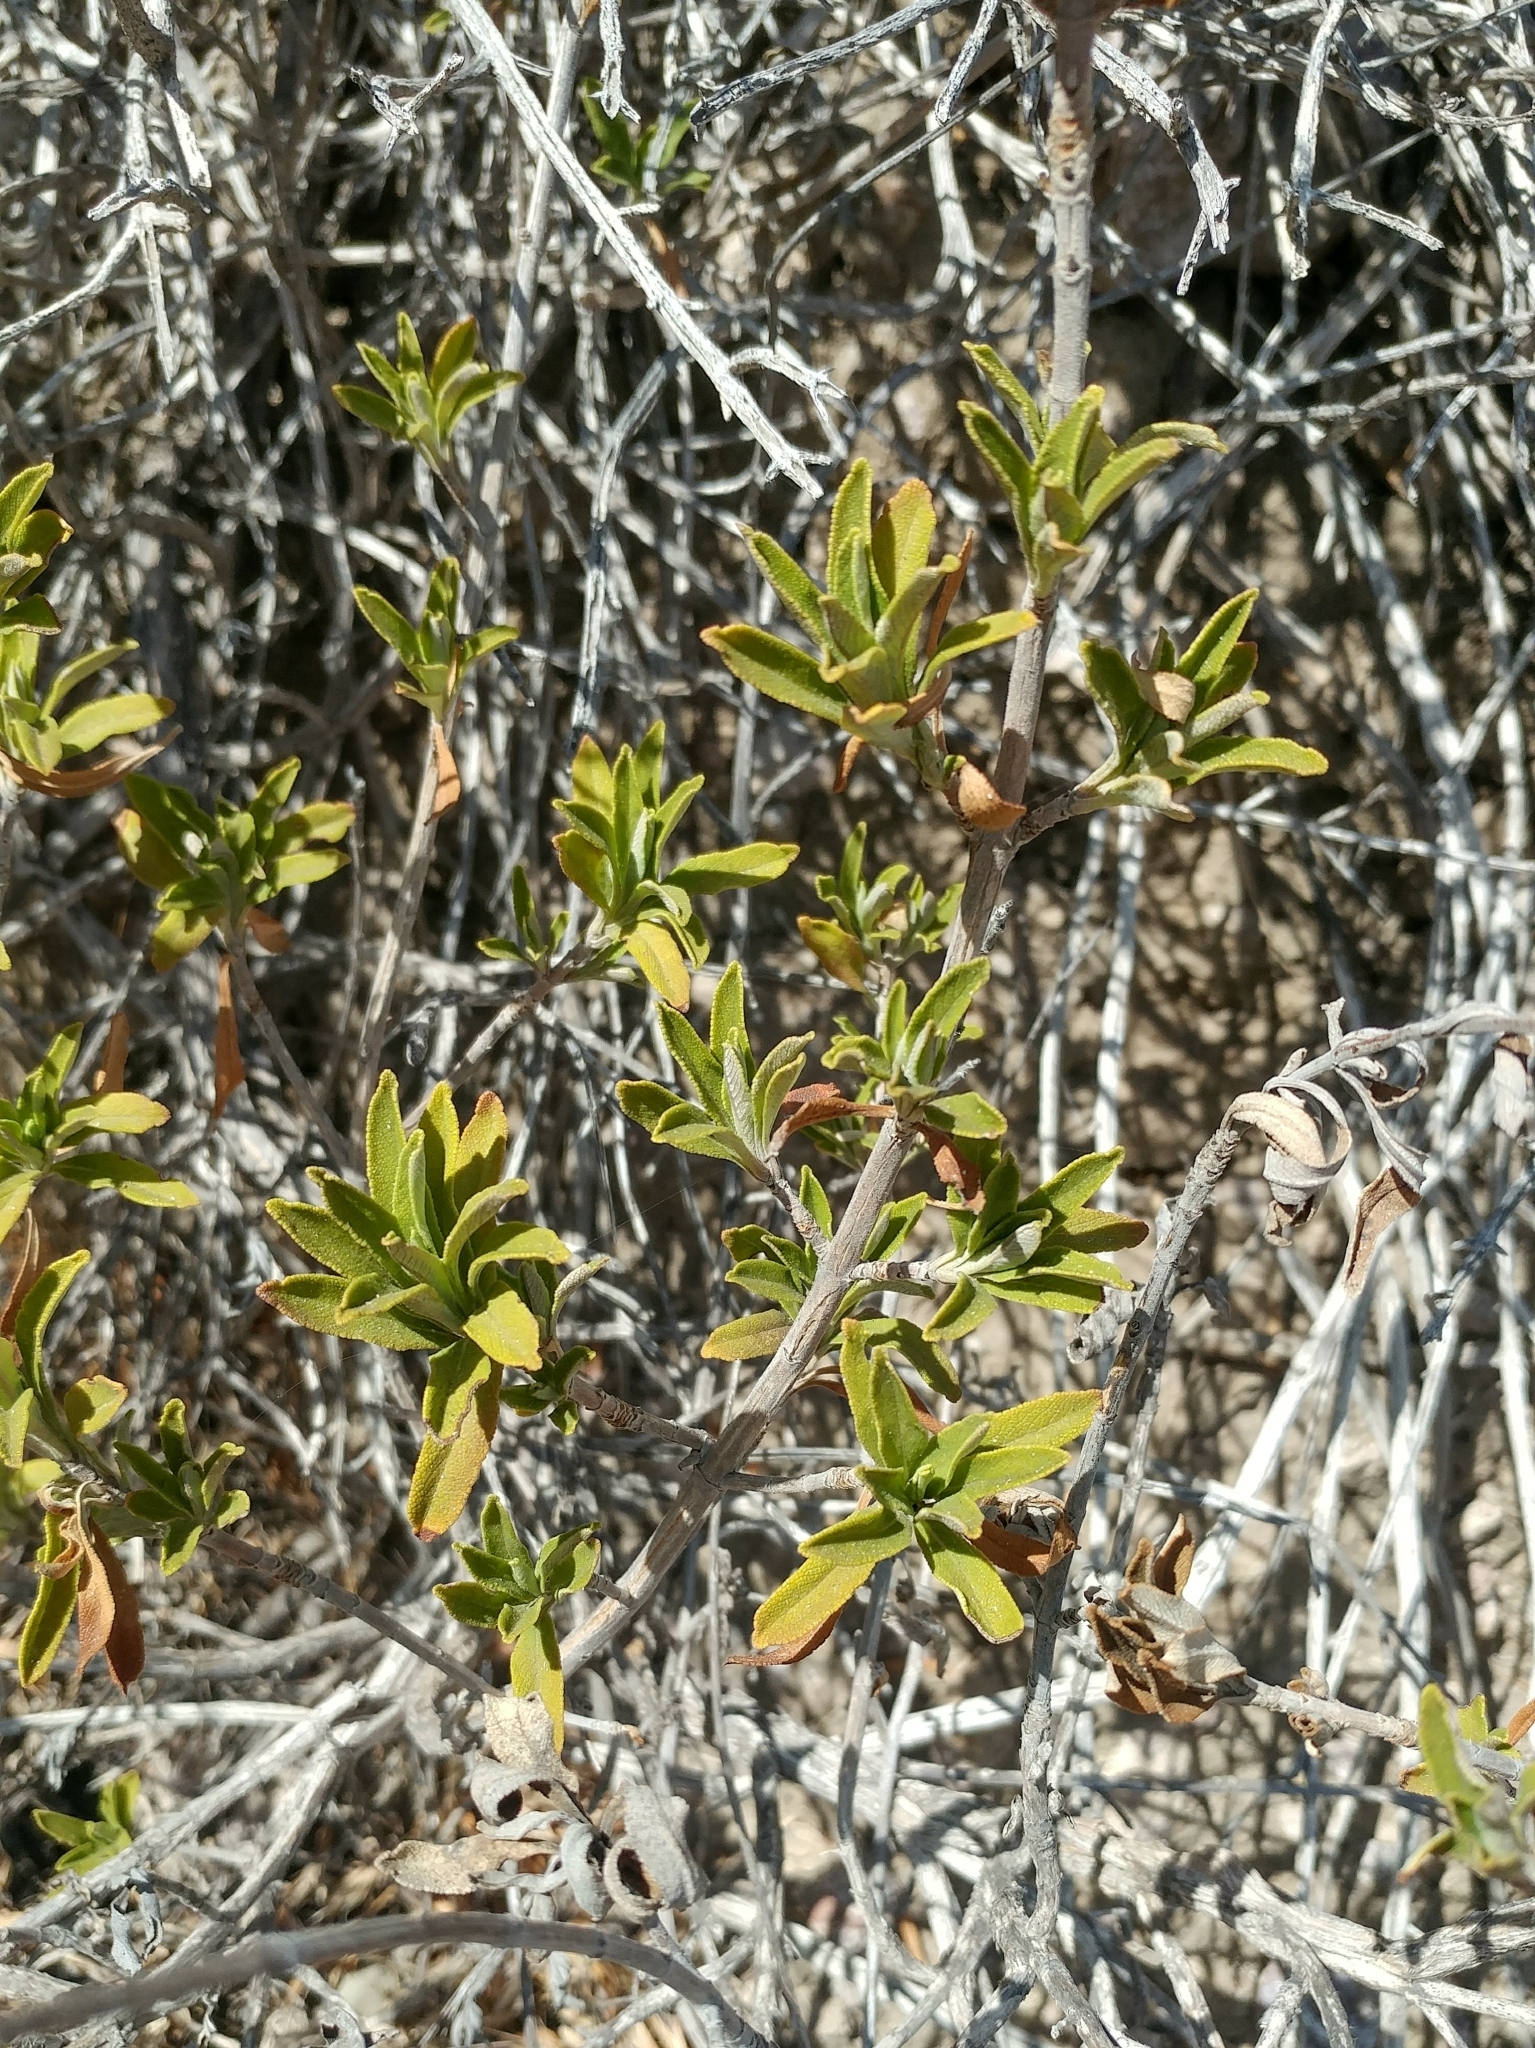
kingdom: Plantae
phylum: Tracheophyta
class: Magnoliopsida
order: Lamiales
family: Lamiaceae
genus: Salvia
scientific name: Salvia mellifera
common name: Black sage
